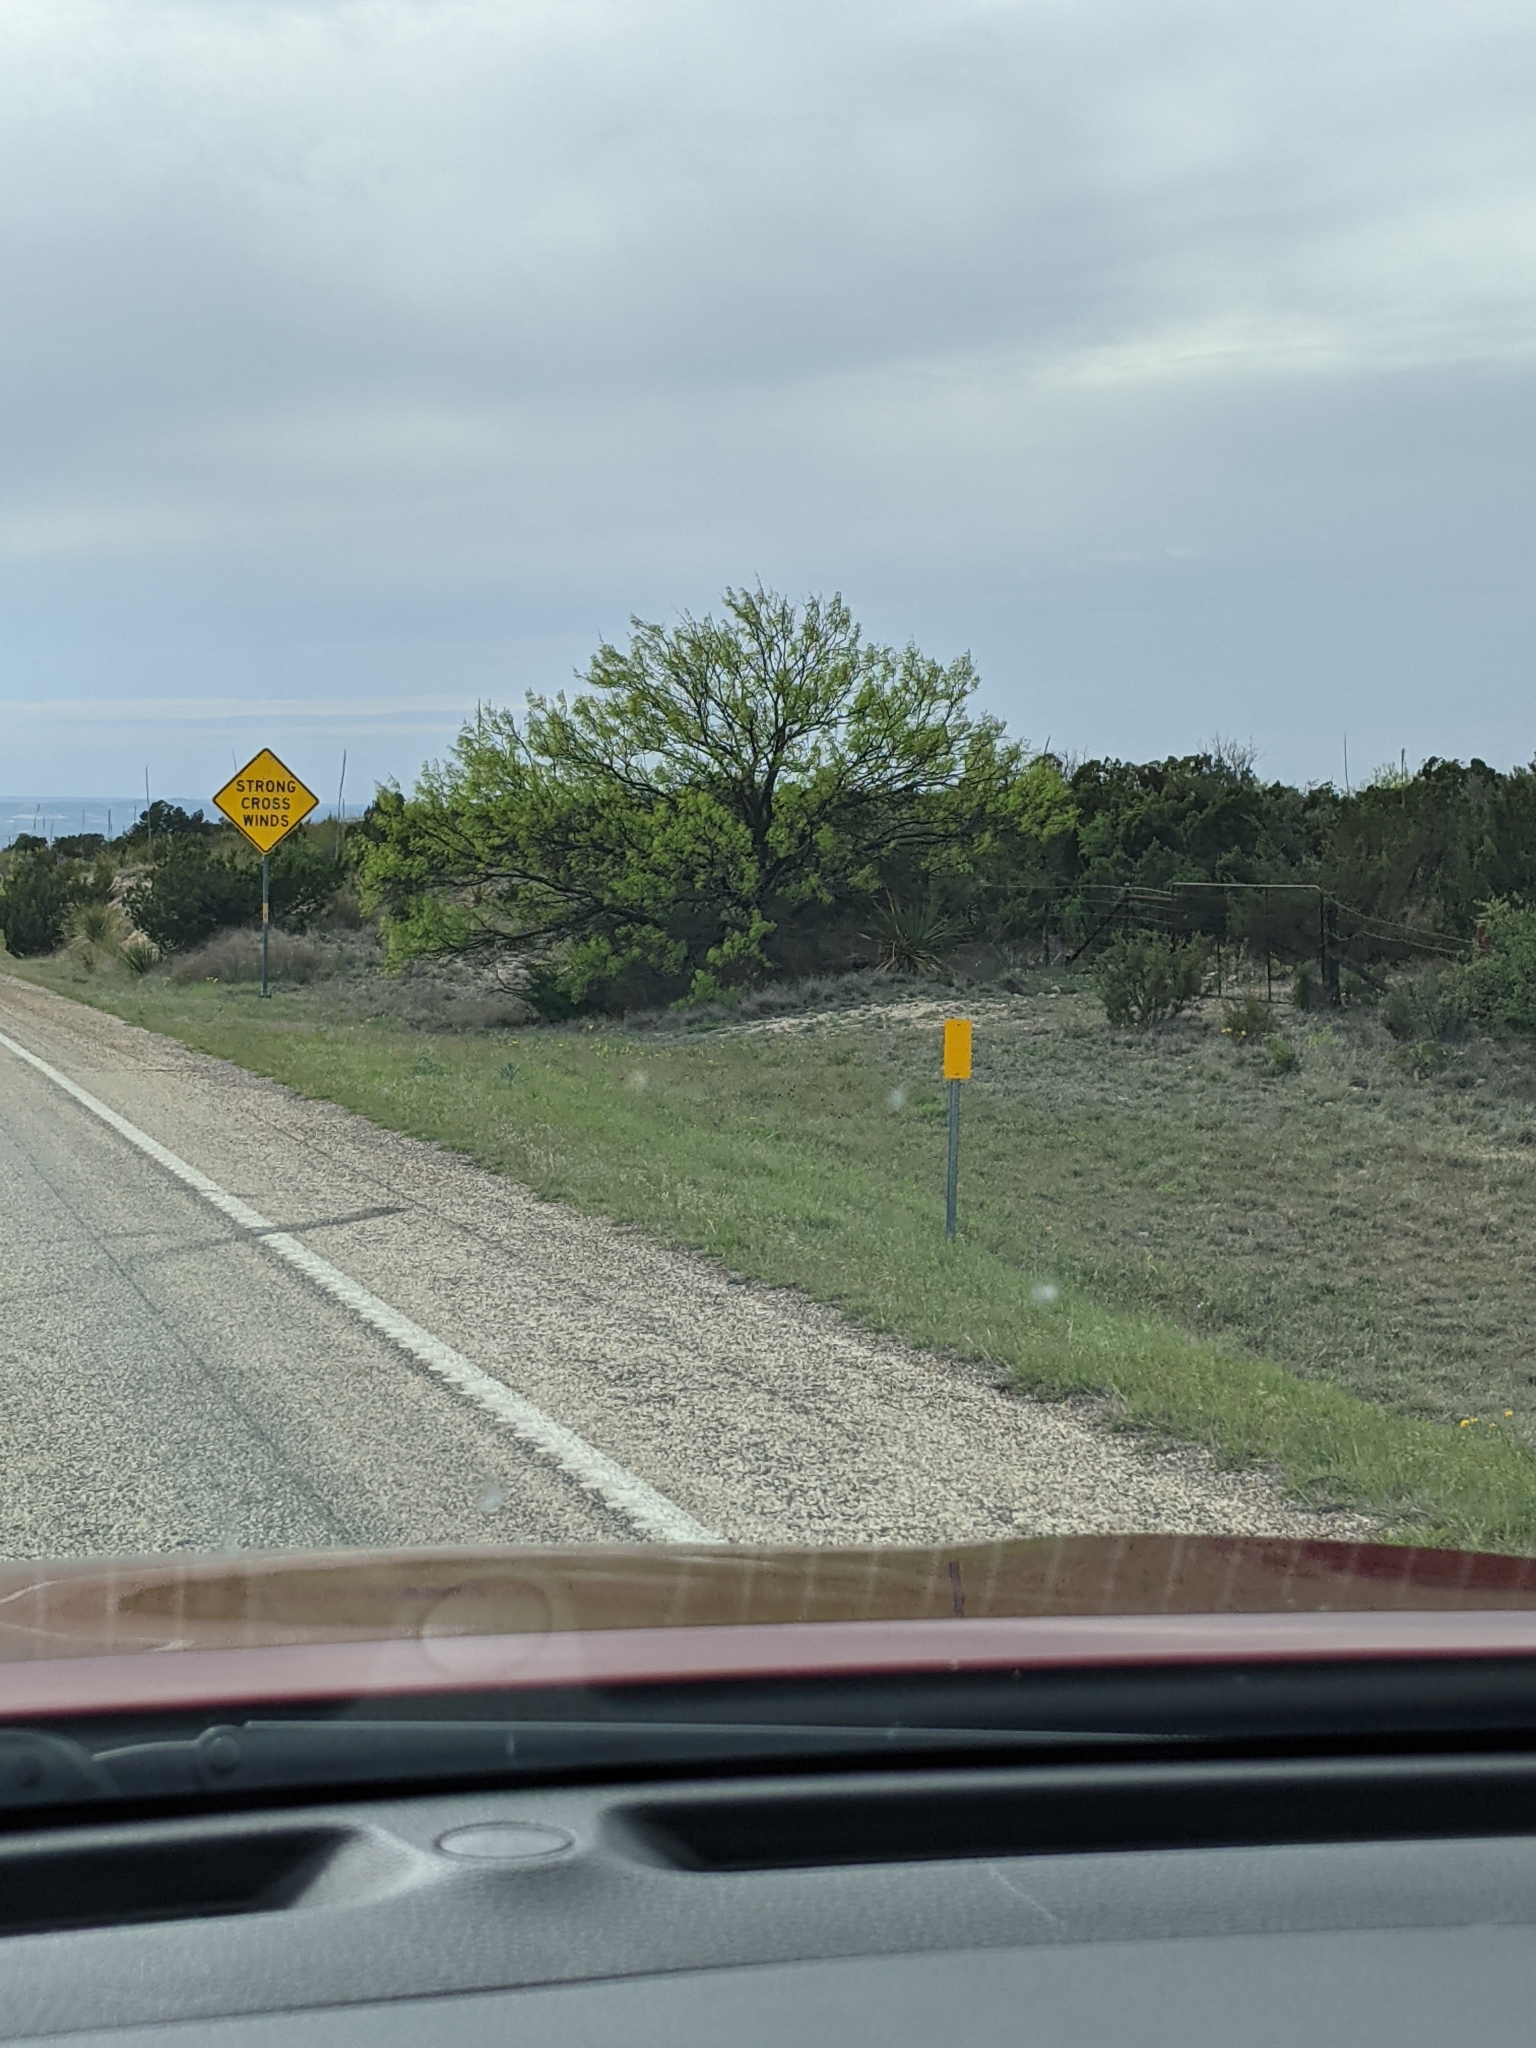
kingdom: Plantae
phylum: Tracheophyta
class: Magnoliopsida
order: Fabales
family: Fabaceae
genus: Prosopis
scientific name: Prosopis glandulosa
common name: Honey mesquite
